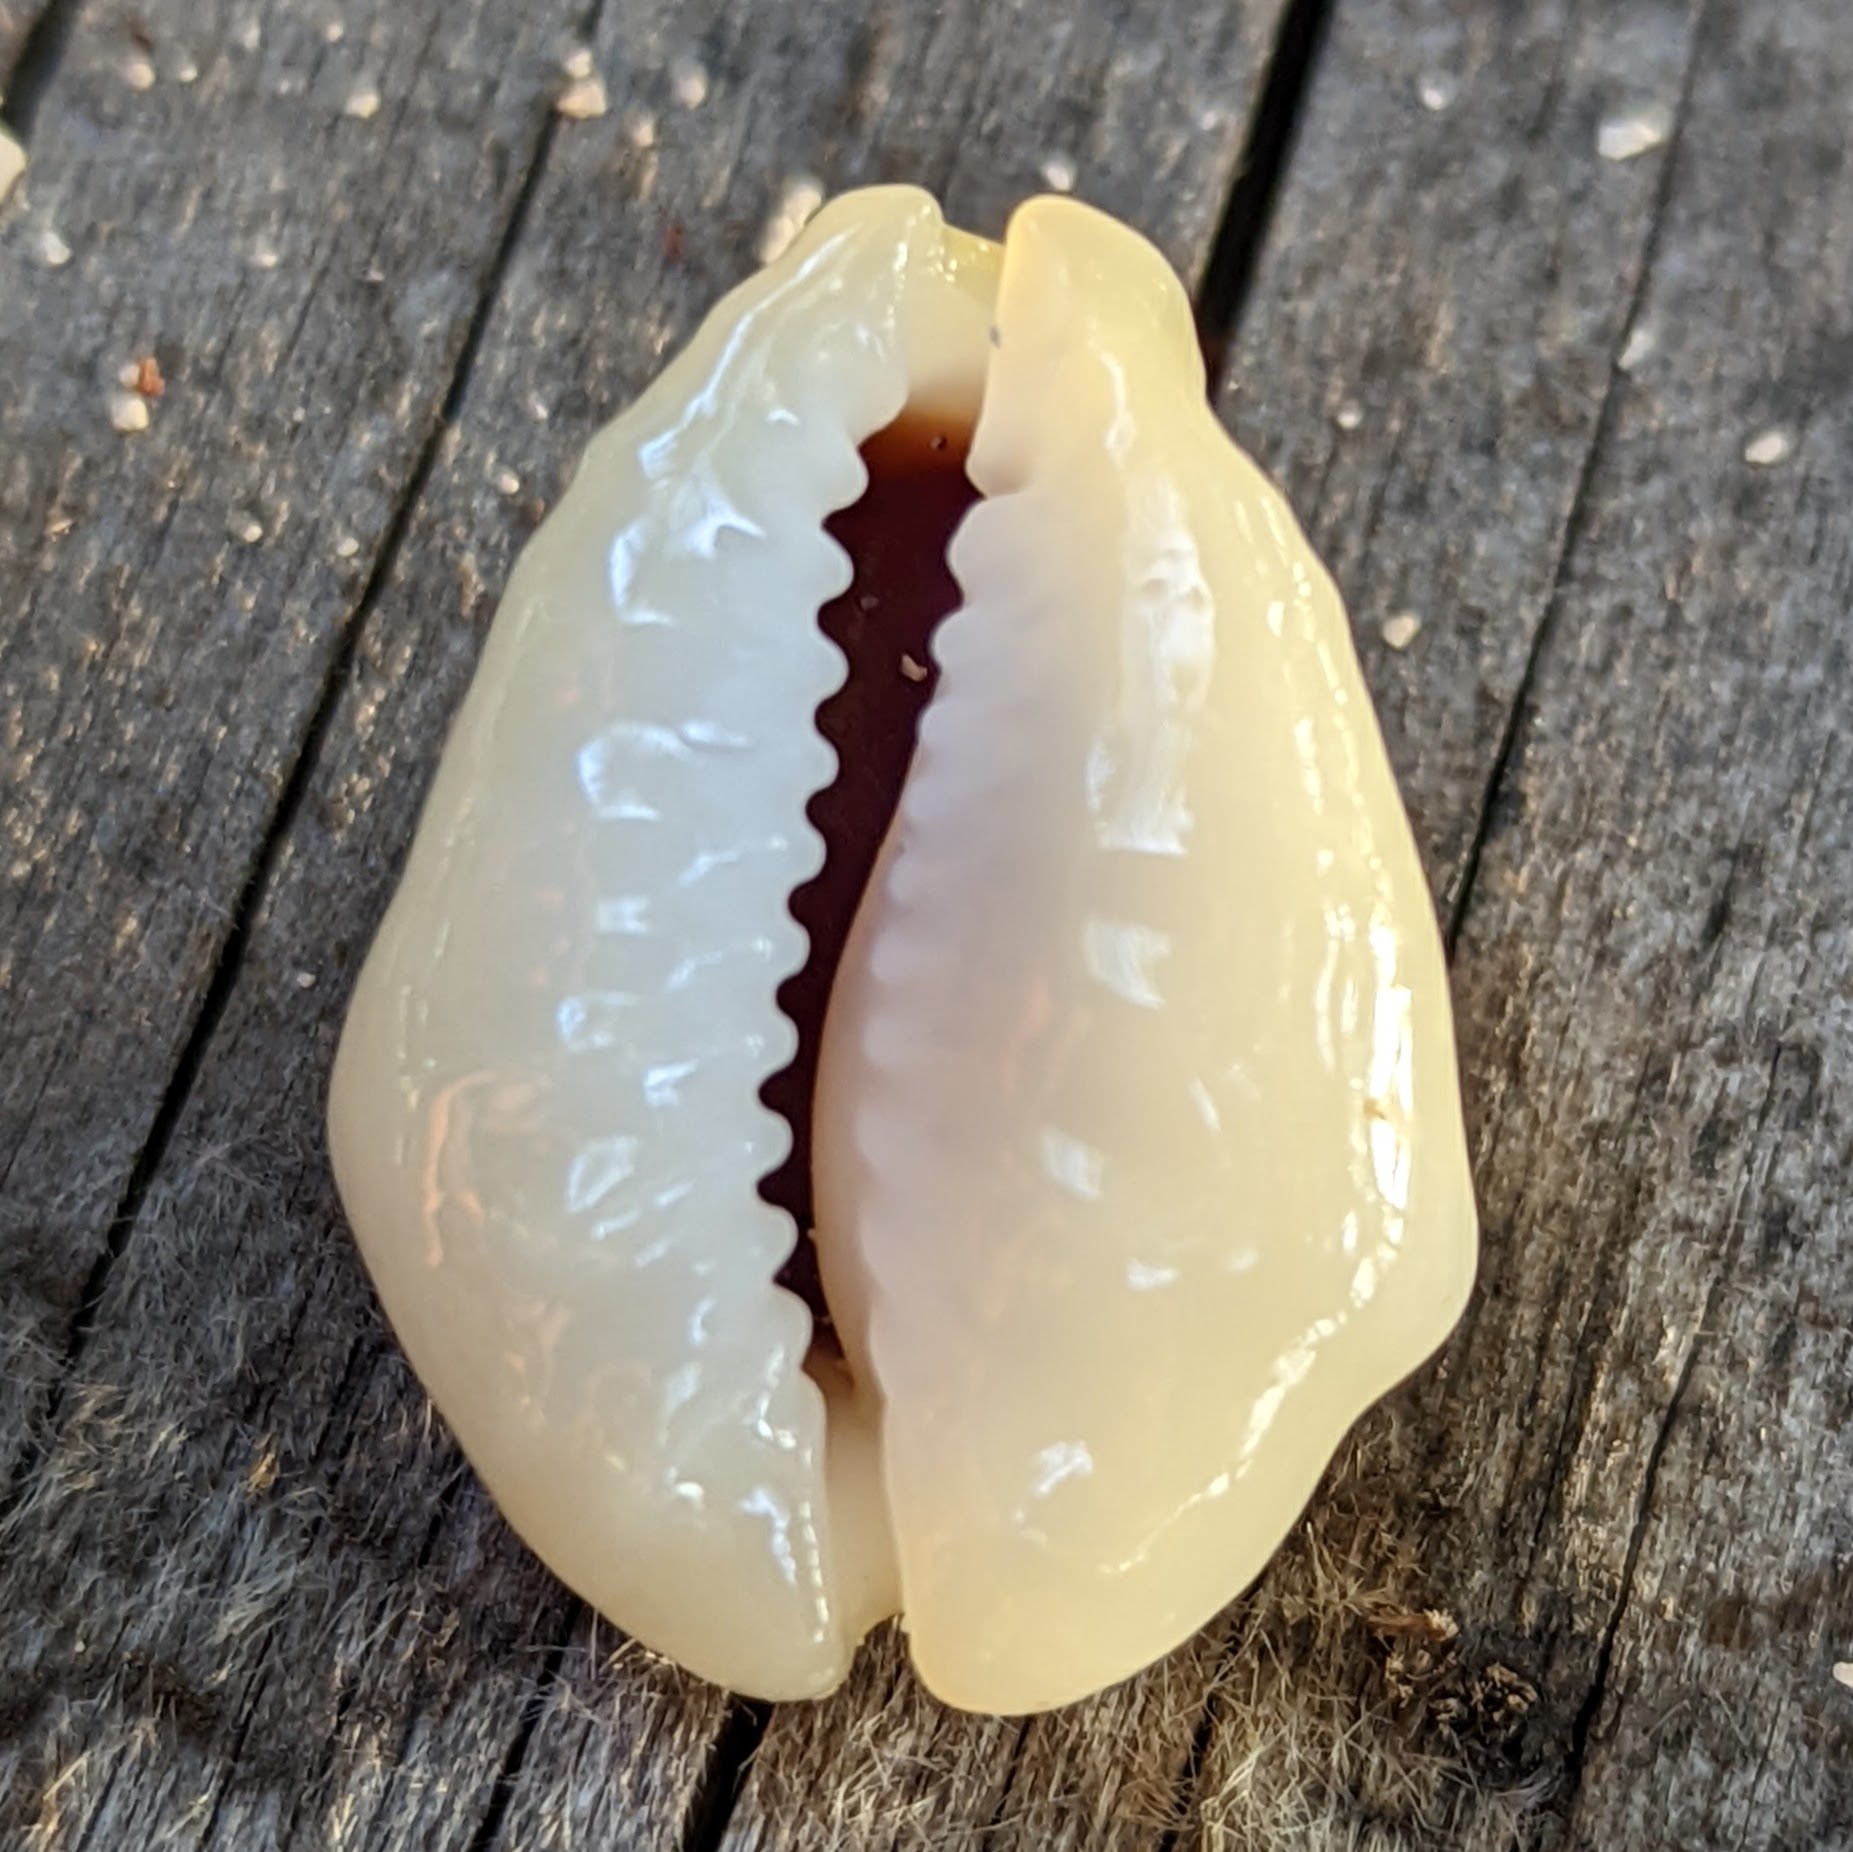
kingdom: Animalia
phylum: Mollusca
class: Gastropoda
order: Littorinimorpha
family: Cypraeidae
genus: Monetaria
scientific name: Monetaria moneta
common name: Money cowrie
